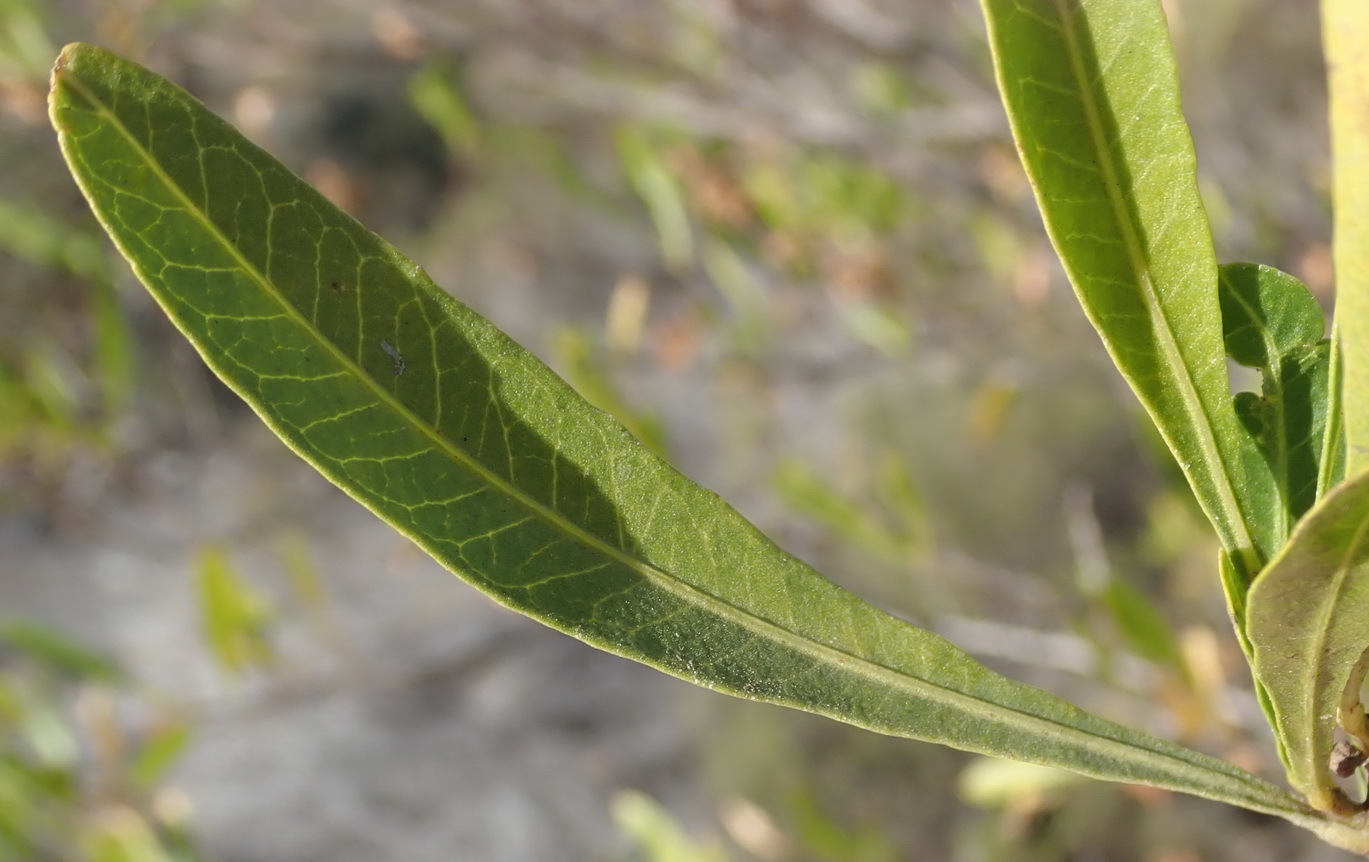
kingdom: Plantae
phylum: Tracheophyta
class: Magnoliopsida
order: Sapindales
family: Sapindaceae
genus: Dodonaea
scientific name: Dodonaea viscosa
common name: Hopbush
